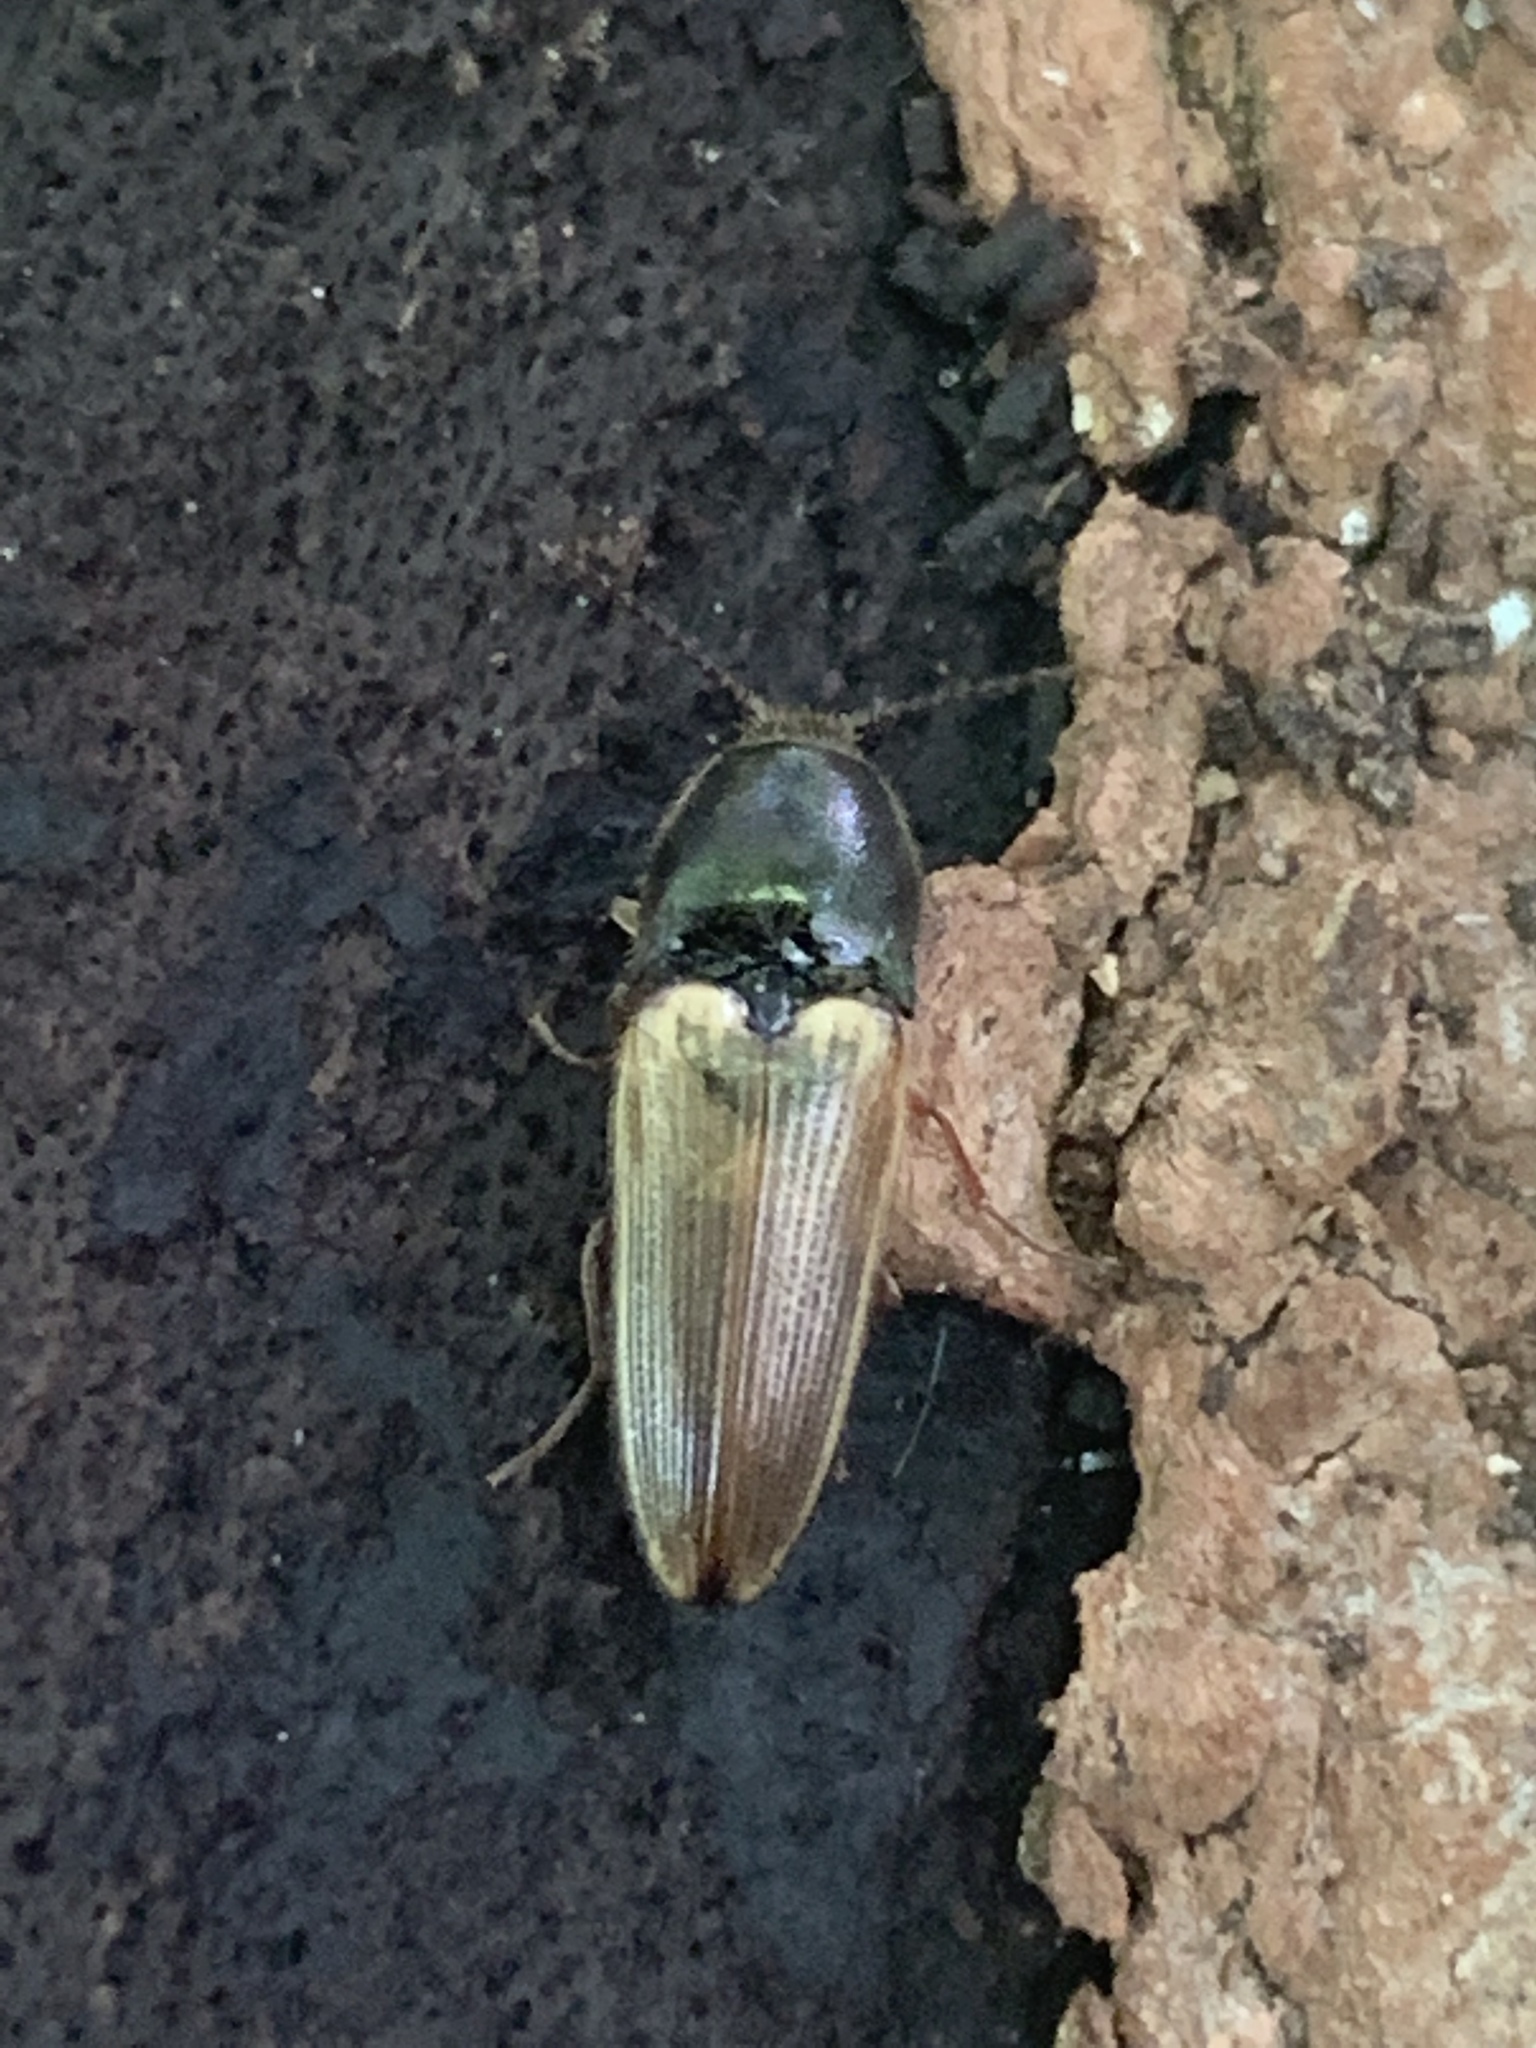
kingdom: Animalia
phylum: Arthropoda
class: Insecta
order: Coleoptera
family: Elateridae
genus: Ampedus
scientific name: Ampedus nigricollis
